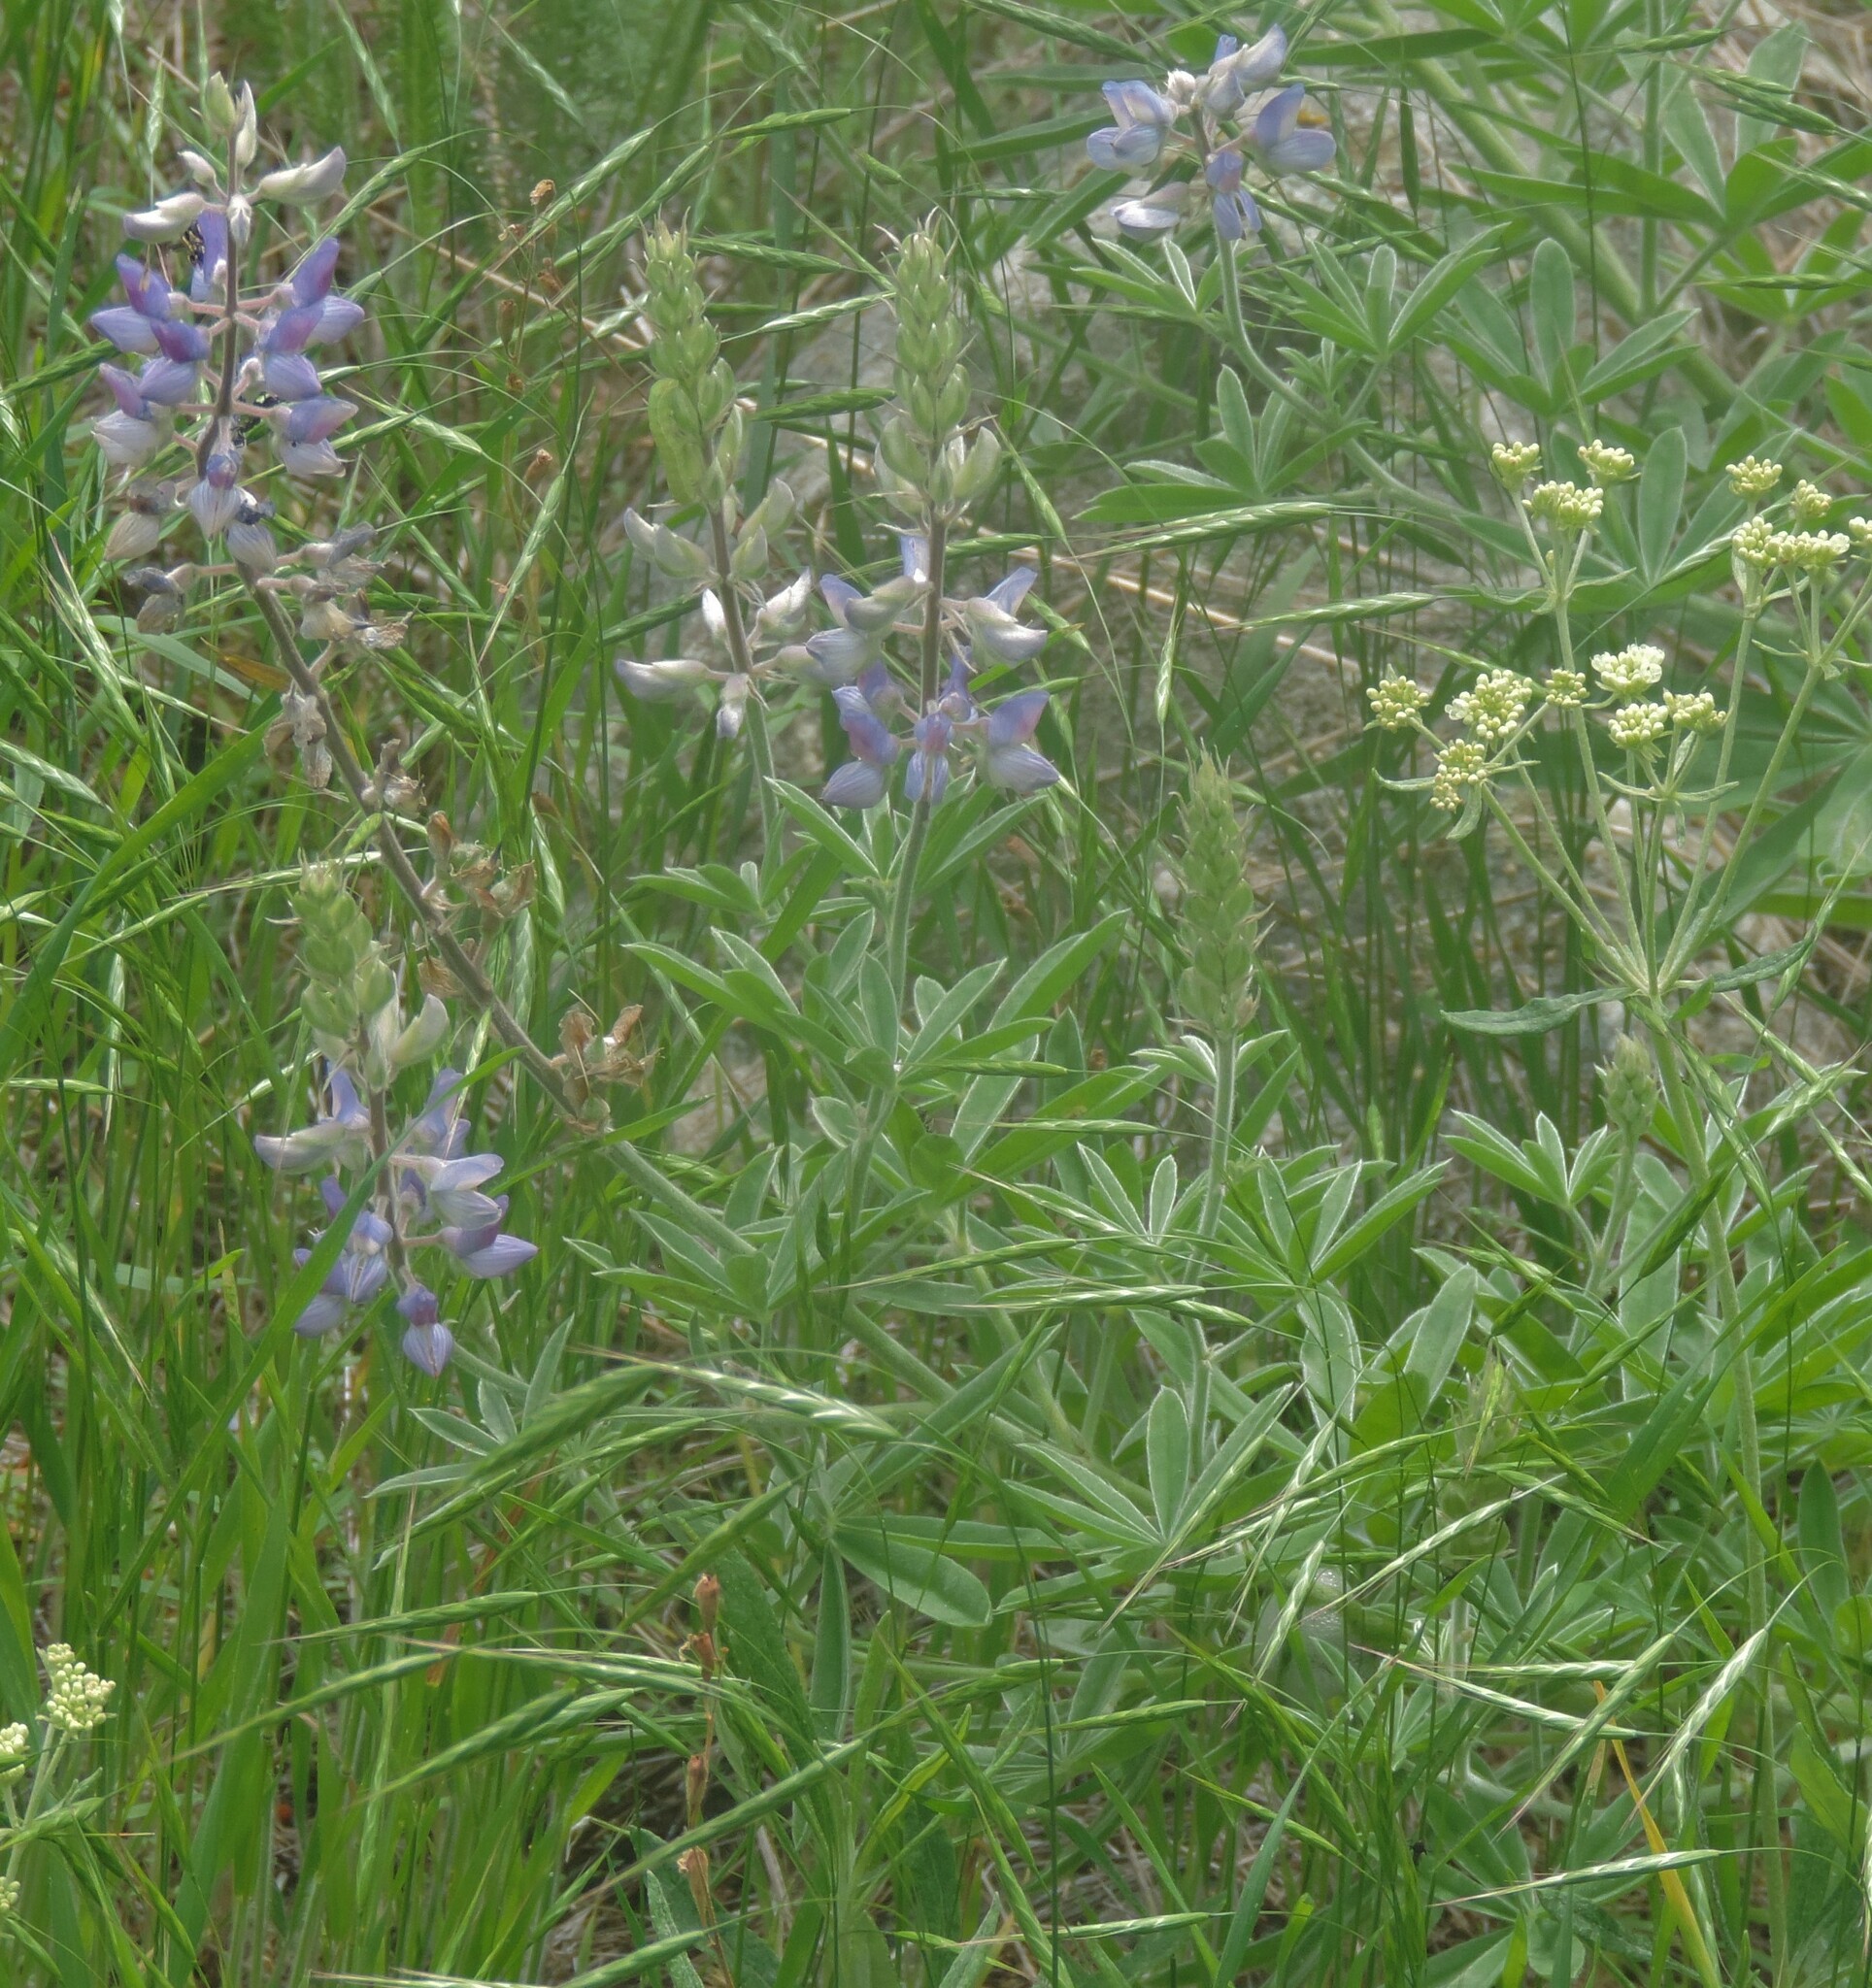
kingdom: Plantae
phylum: Tracheophyta
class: Magnoliopsida
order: Fabales
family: Fabaceae
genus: Lupinus
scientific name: Lupinus sericeus
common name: Silky lupine
